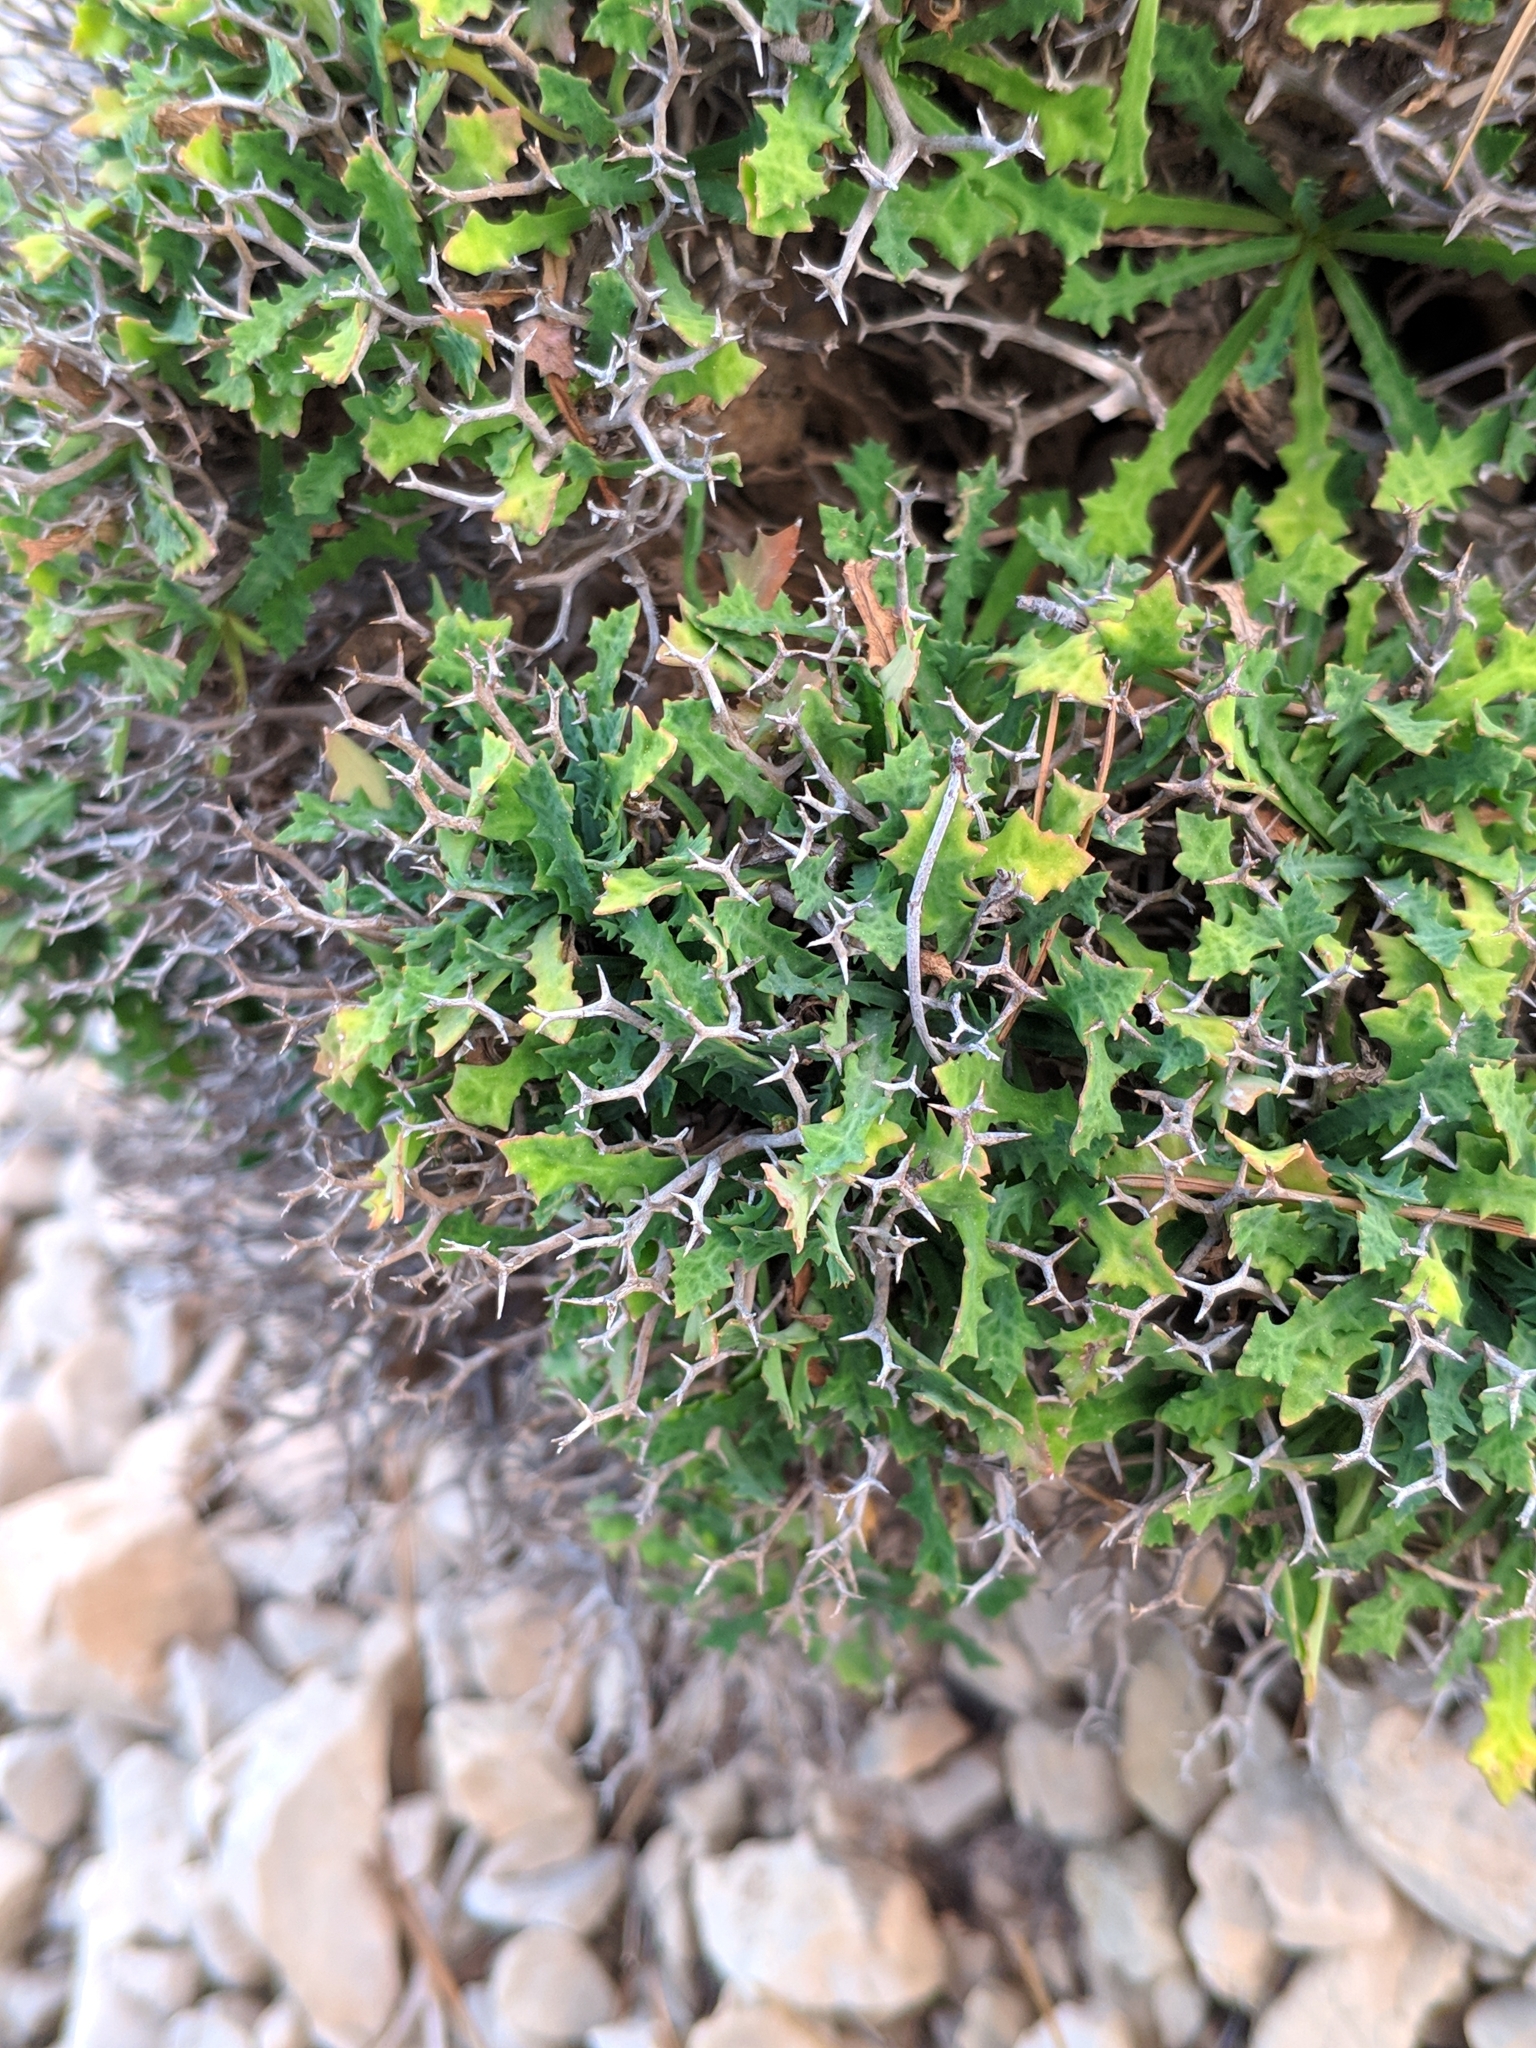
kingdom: Plantae
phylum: Tracheophyta
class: Magnoliopsida
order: Asterales
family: Asteraceae
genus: Launaea
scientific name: Launaea cervicornis
